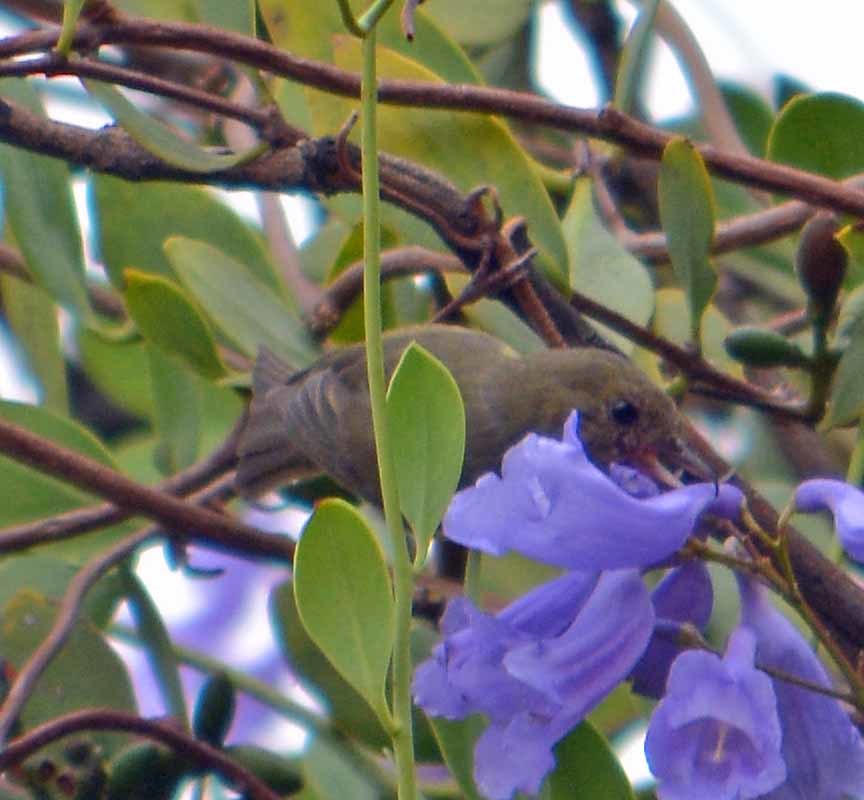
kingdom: Animalia
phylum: Chordata
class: Aves
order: Passeriformes
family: Thraupidae
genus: Diglossa
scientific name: Diglossa baritula
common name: Cinnamon-bellied flowerpiercer
